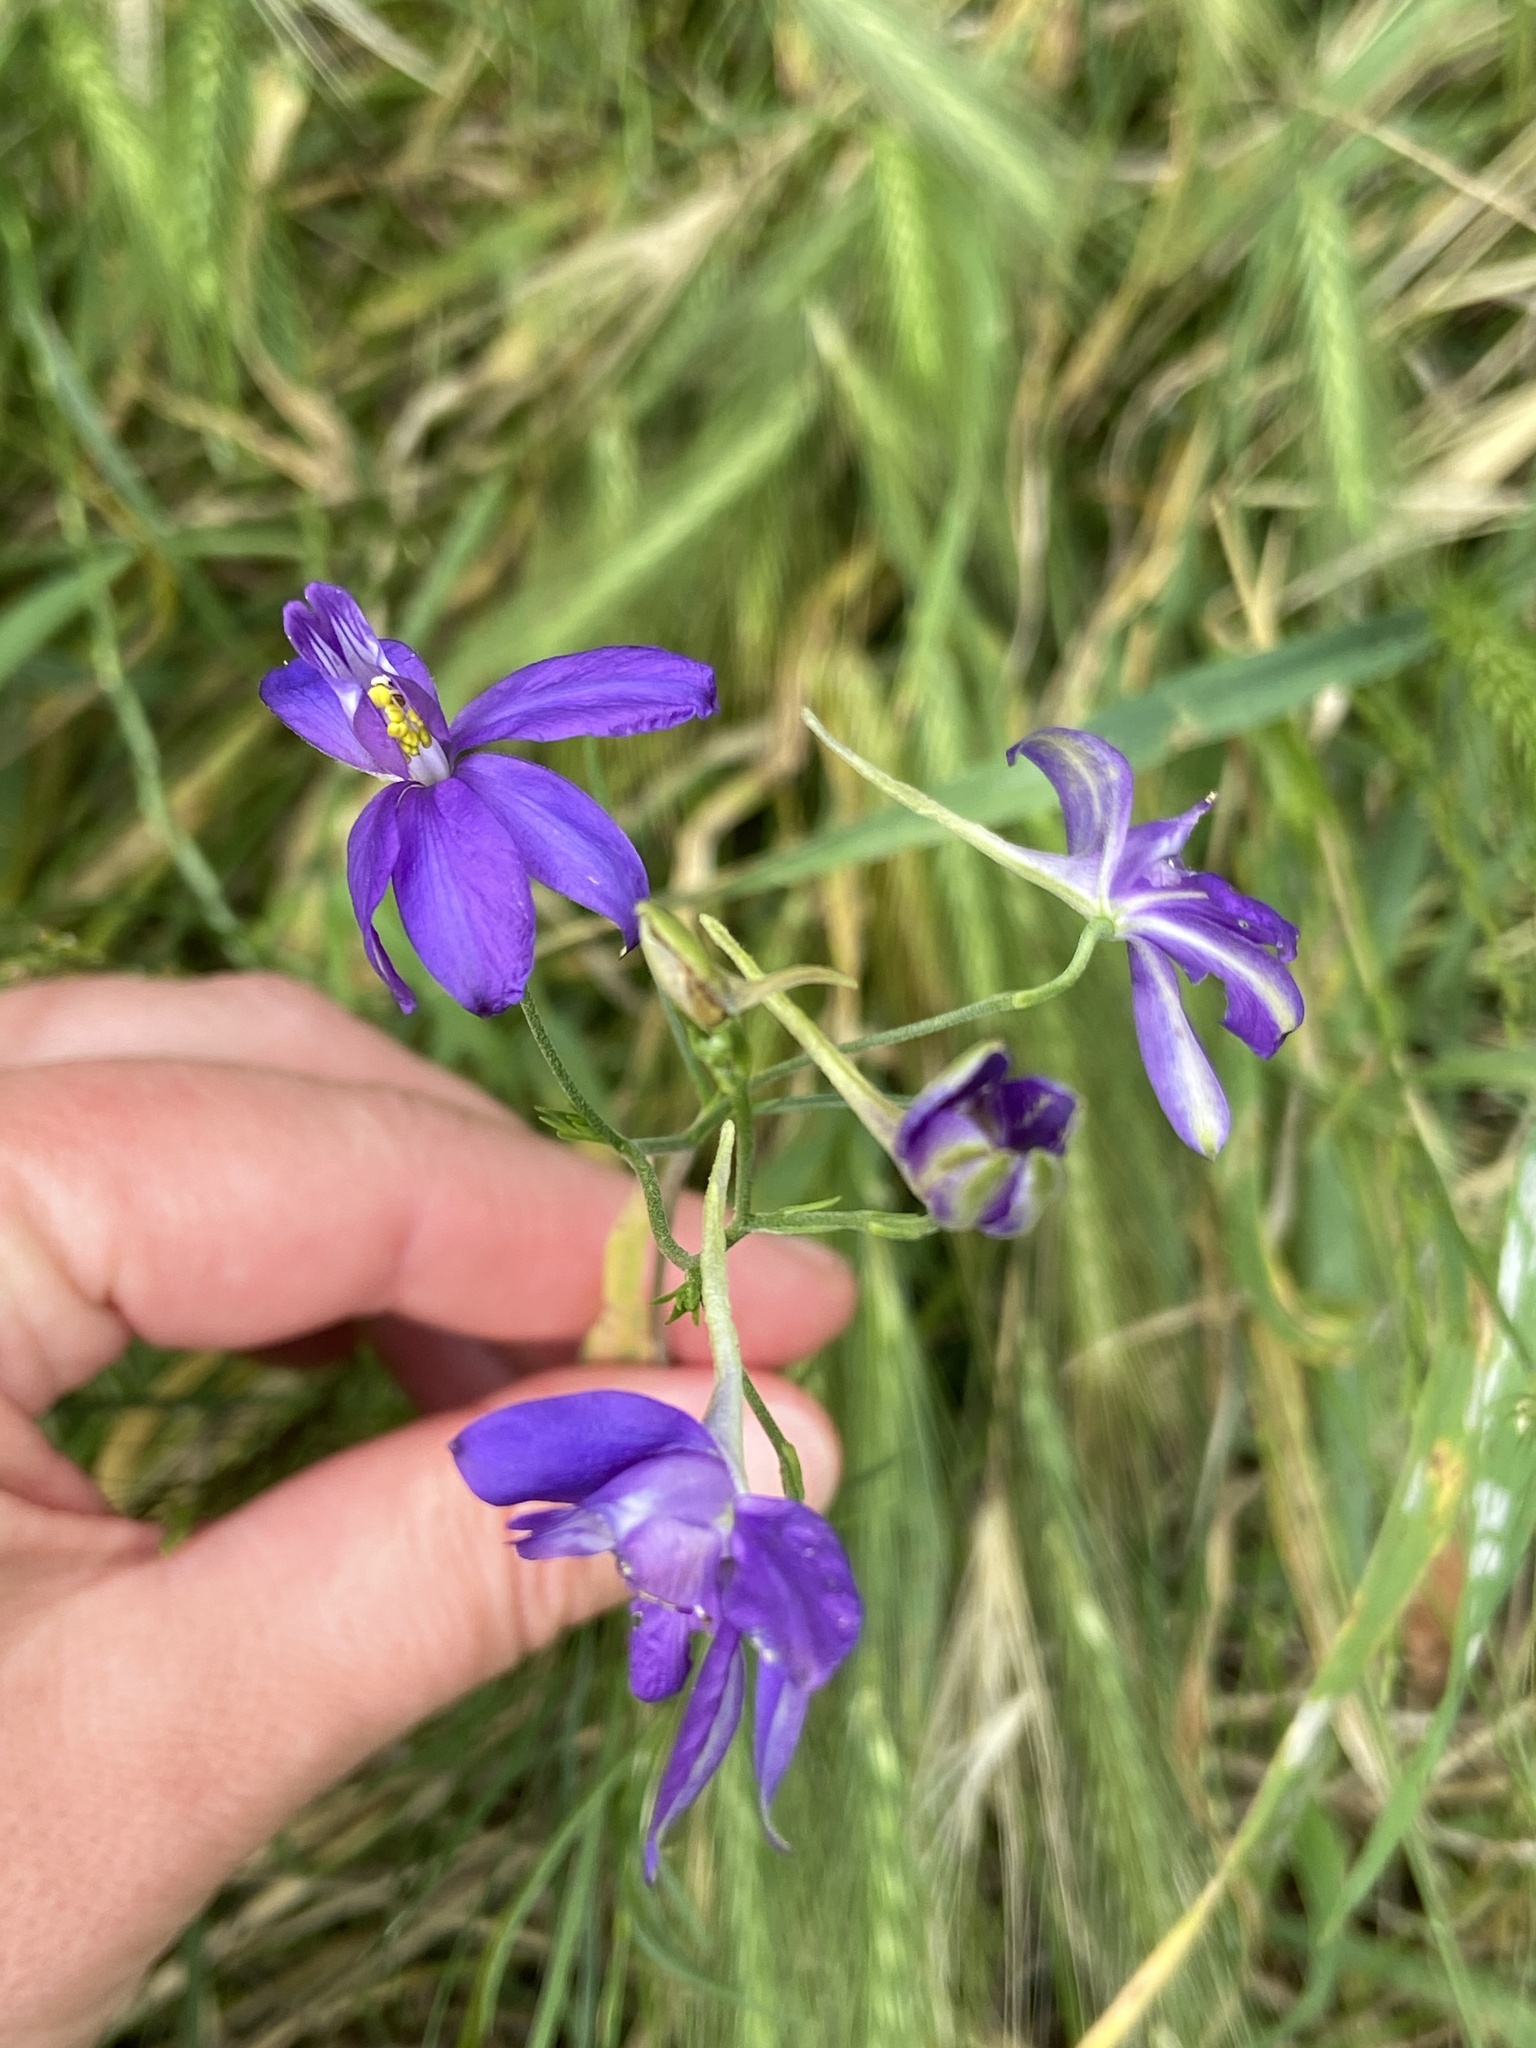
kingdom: Plantae
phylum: Tracheophyta
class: Magnoliopsida
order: Ranunculales
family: Ranunculaceae
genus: Delphinium
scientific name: Delphinium consolida
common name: Branching larkspur
